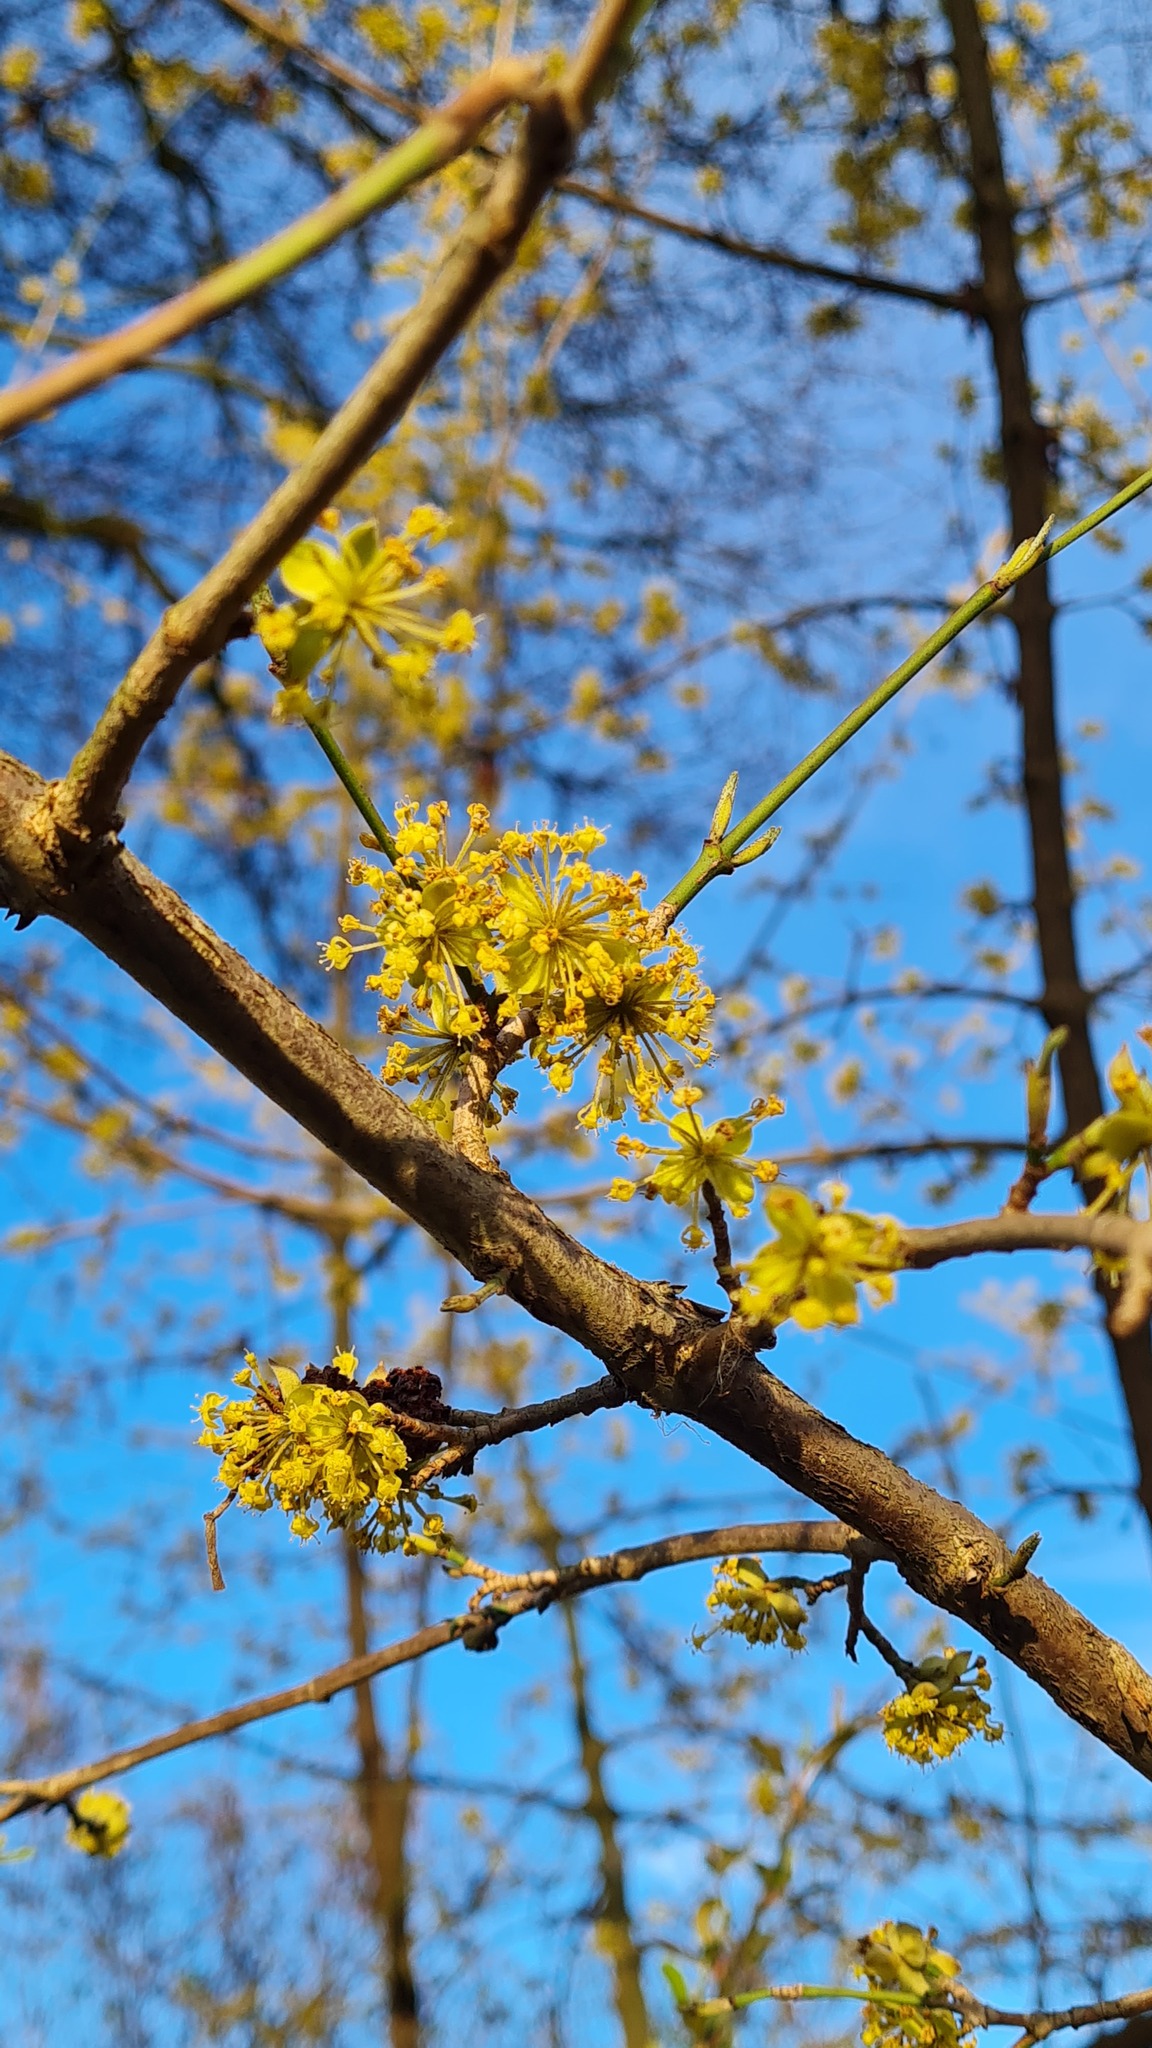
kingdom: Plantae
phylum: Tracheophyta
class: Magnoliopsida
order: Cornales
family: Cornaceae
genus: Cornus
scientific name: Cornus mas
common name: Cornelian-cherry
